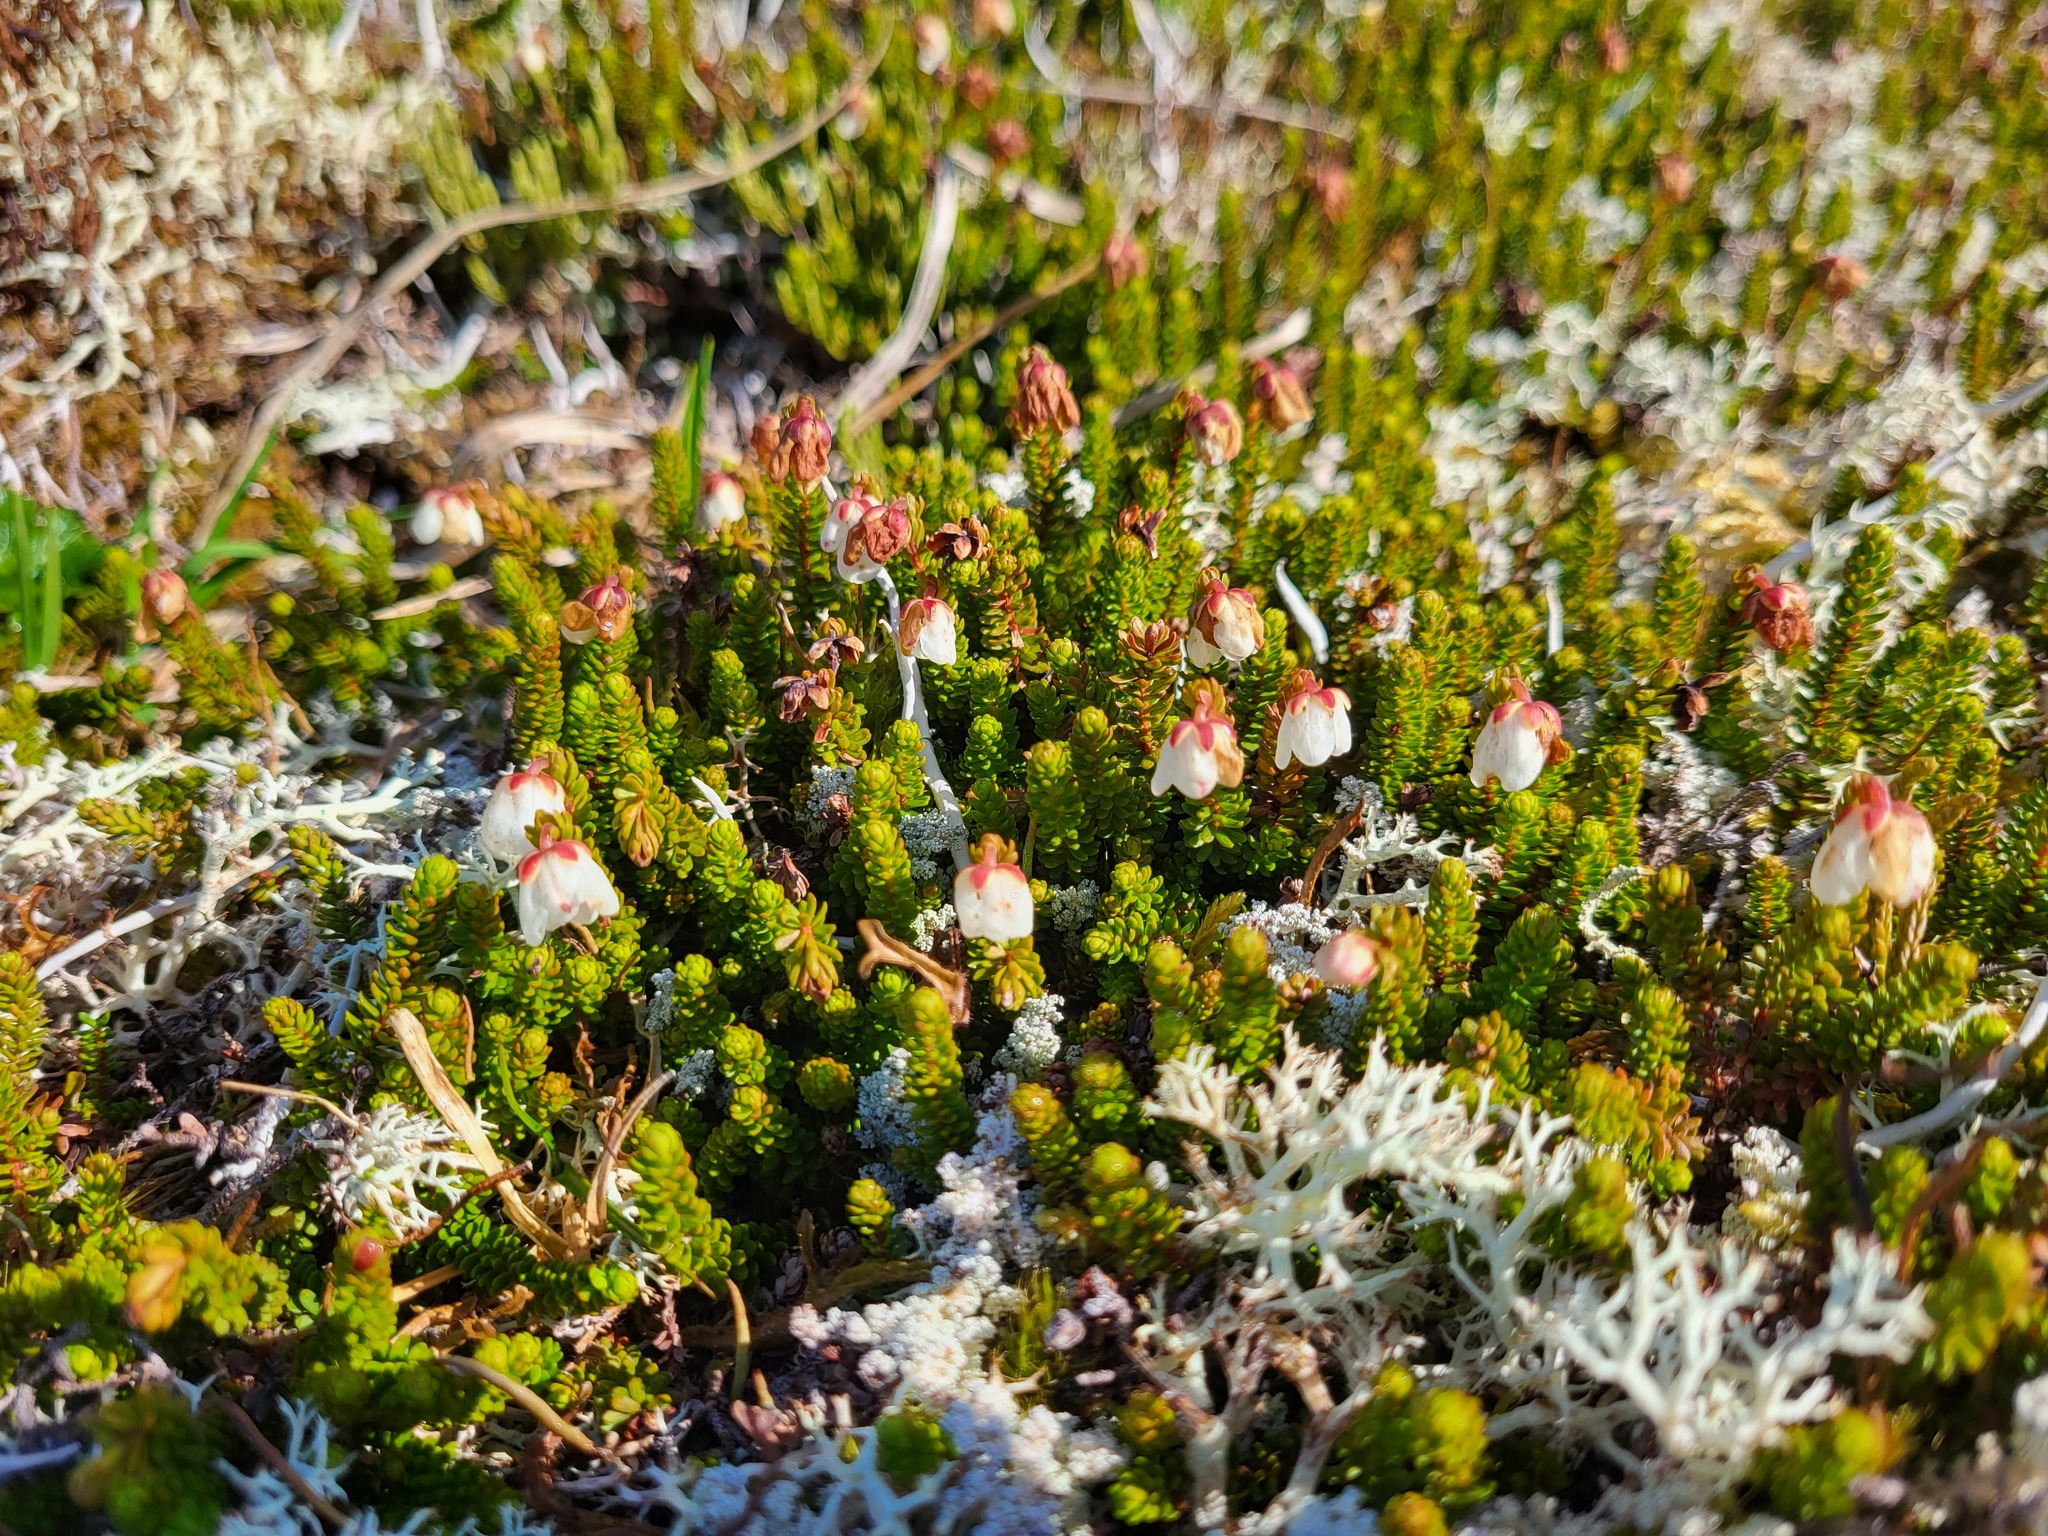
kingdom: Plantae
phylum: Tracheophyta
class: Magnoliopsida
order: Ericales
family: Ericaceae
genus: Harrimanella
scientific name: Harrimanella stelleriana
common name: Alaska bell heather
